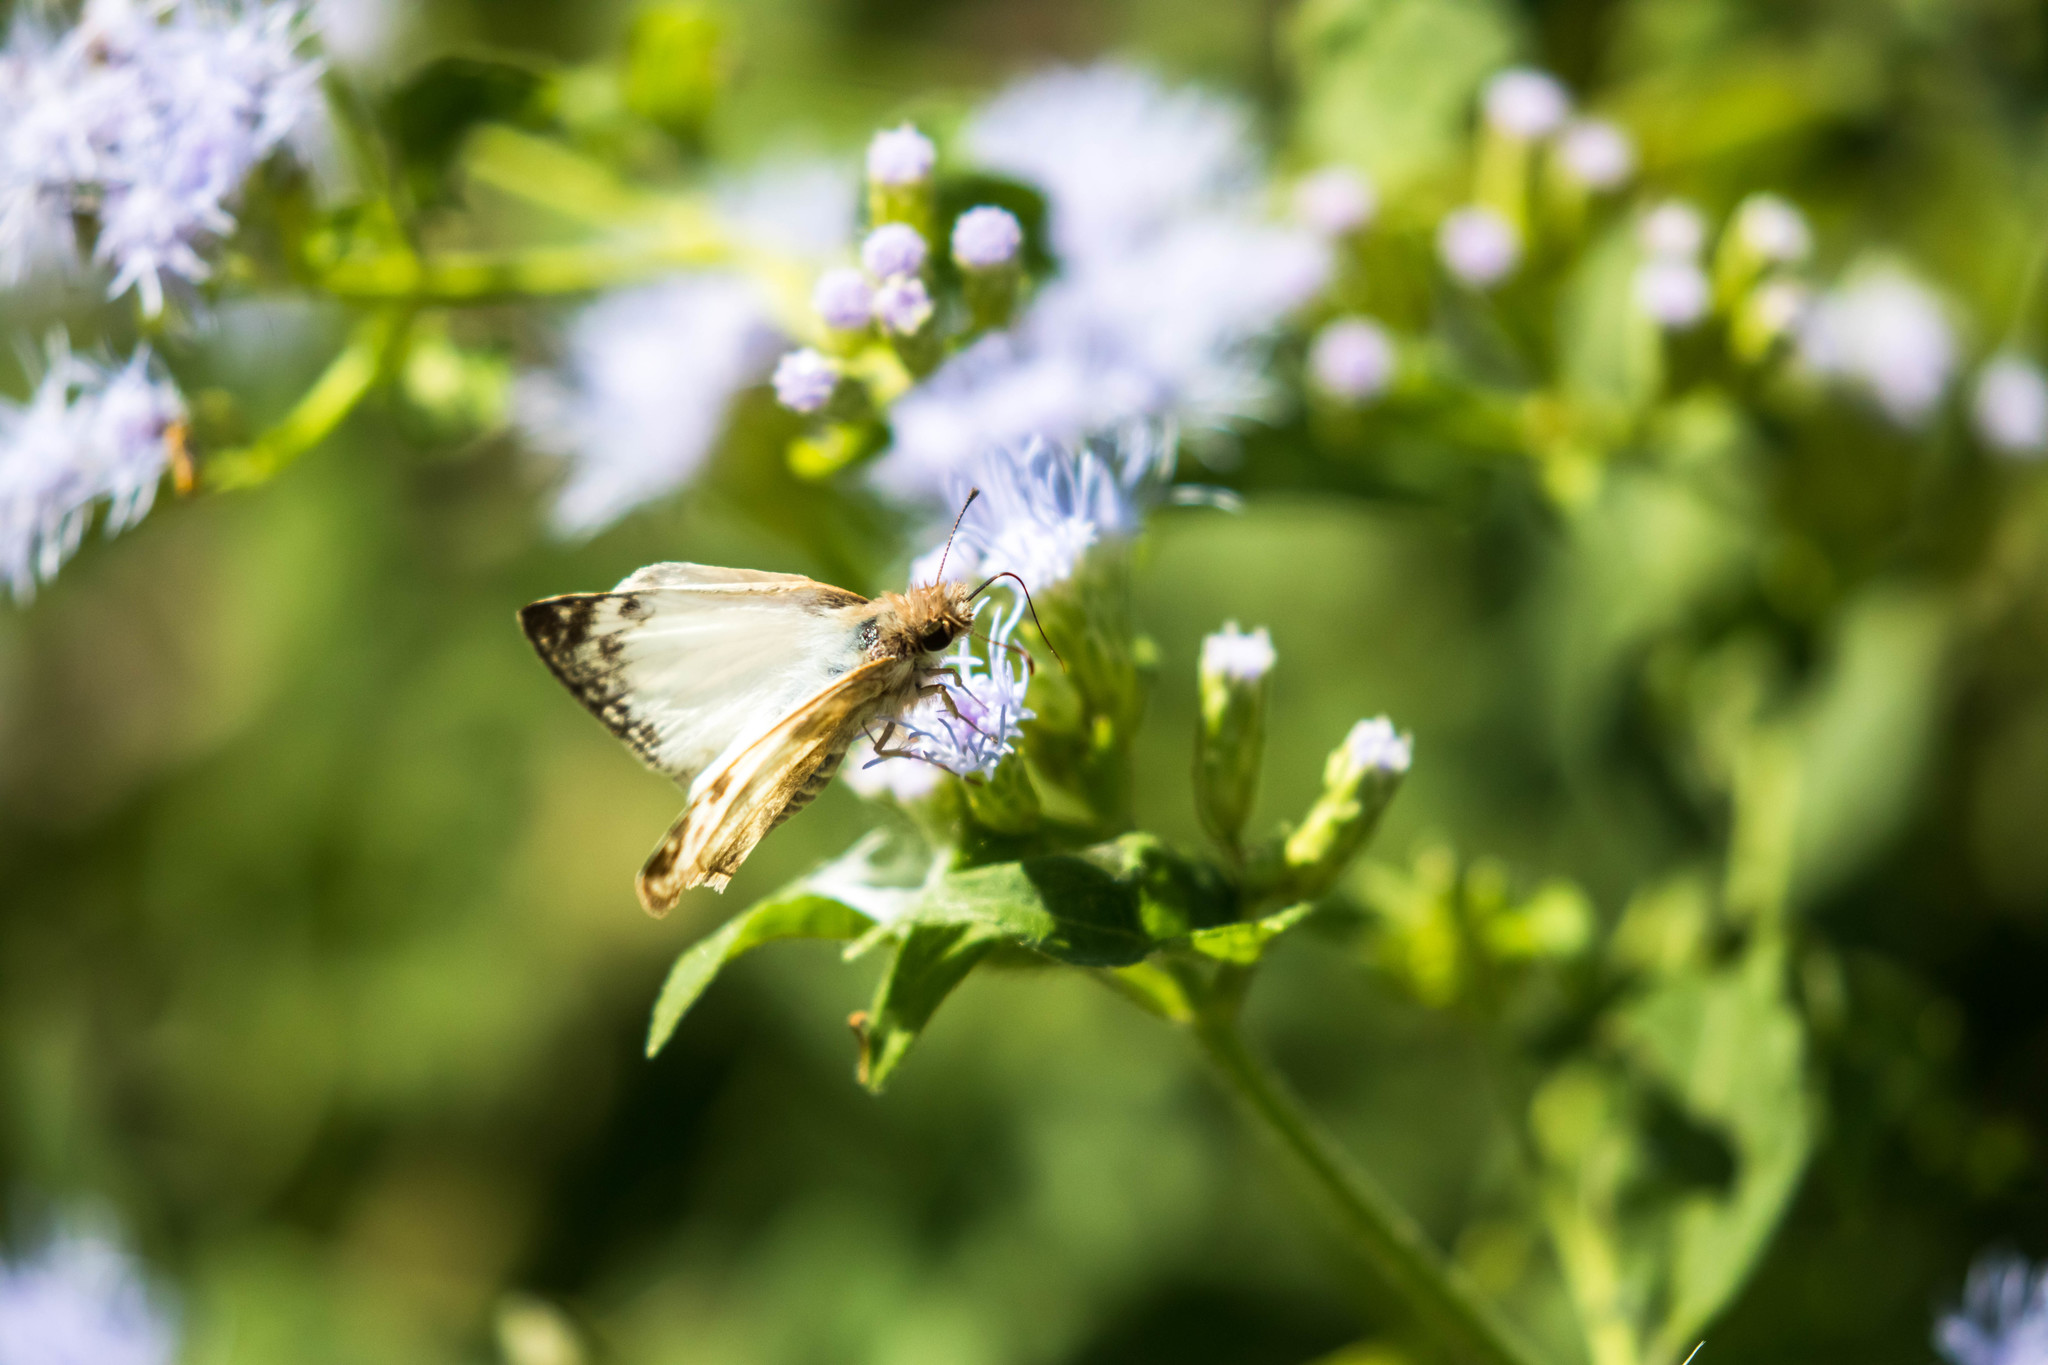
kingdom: Animalia
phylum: Arthropoda
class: Insecta
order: Lepidoptera
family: Hesperiidae
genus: Heliopetes
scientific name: Heliopetes laviana
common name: Laviana white-skipper
